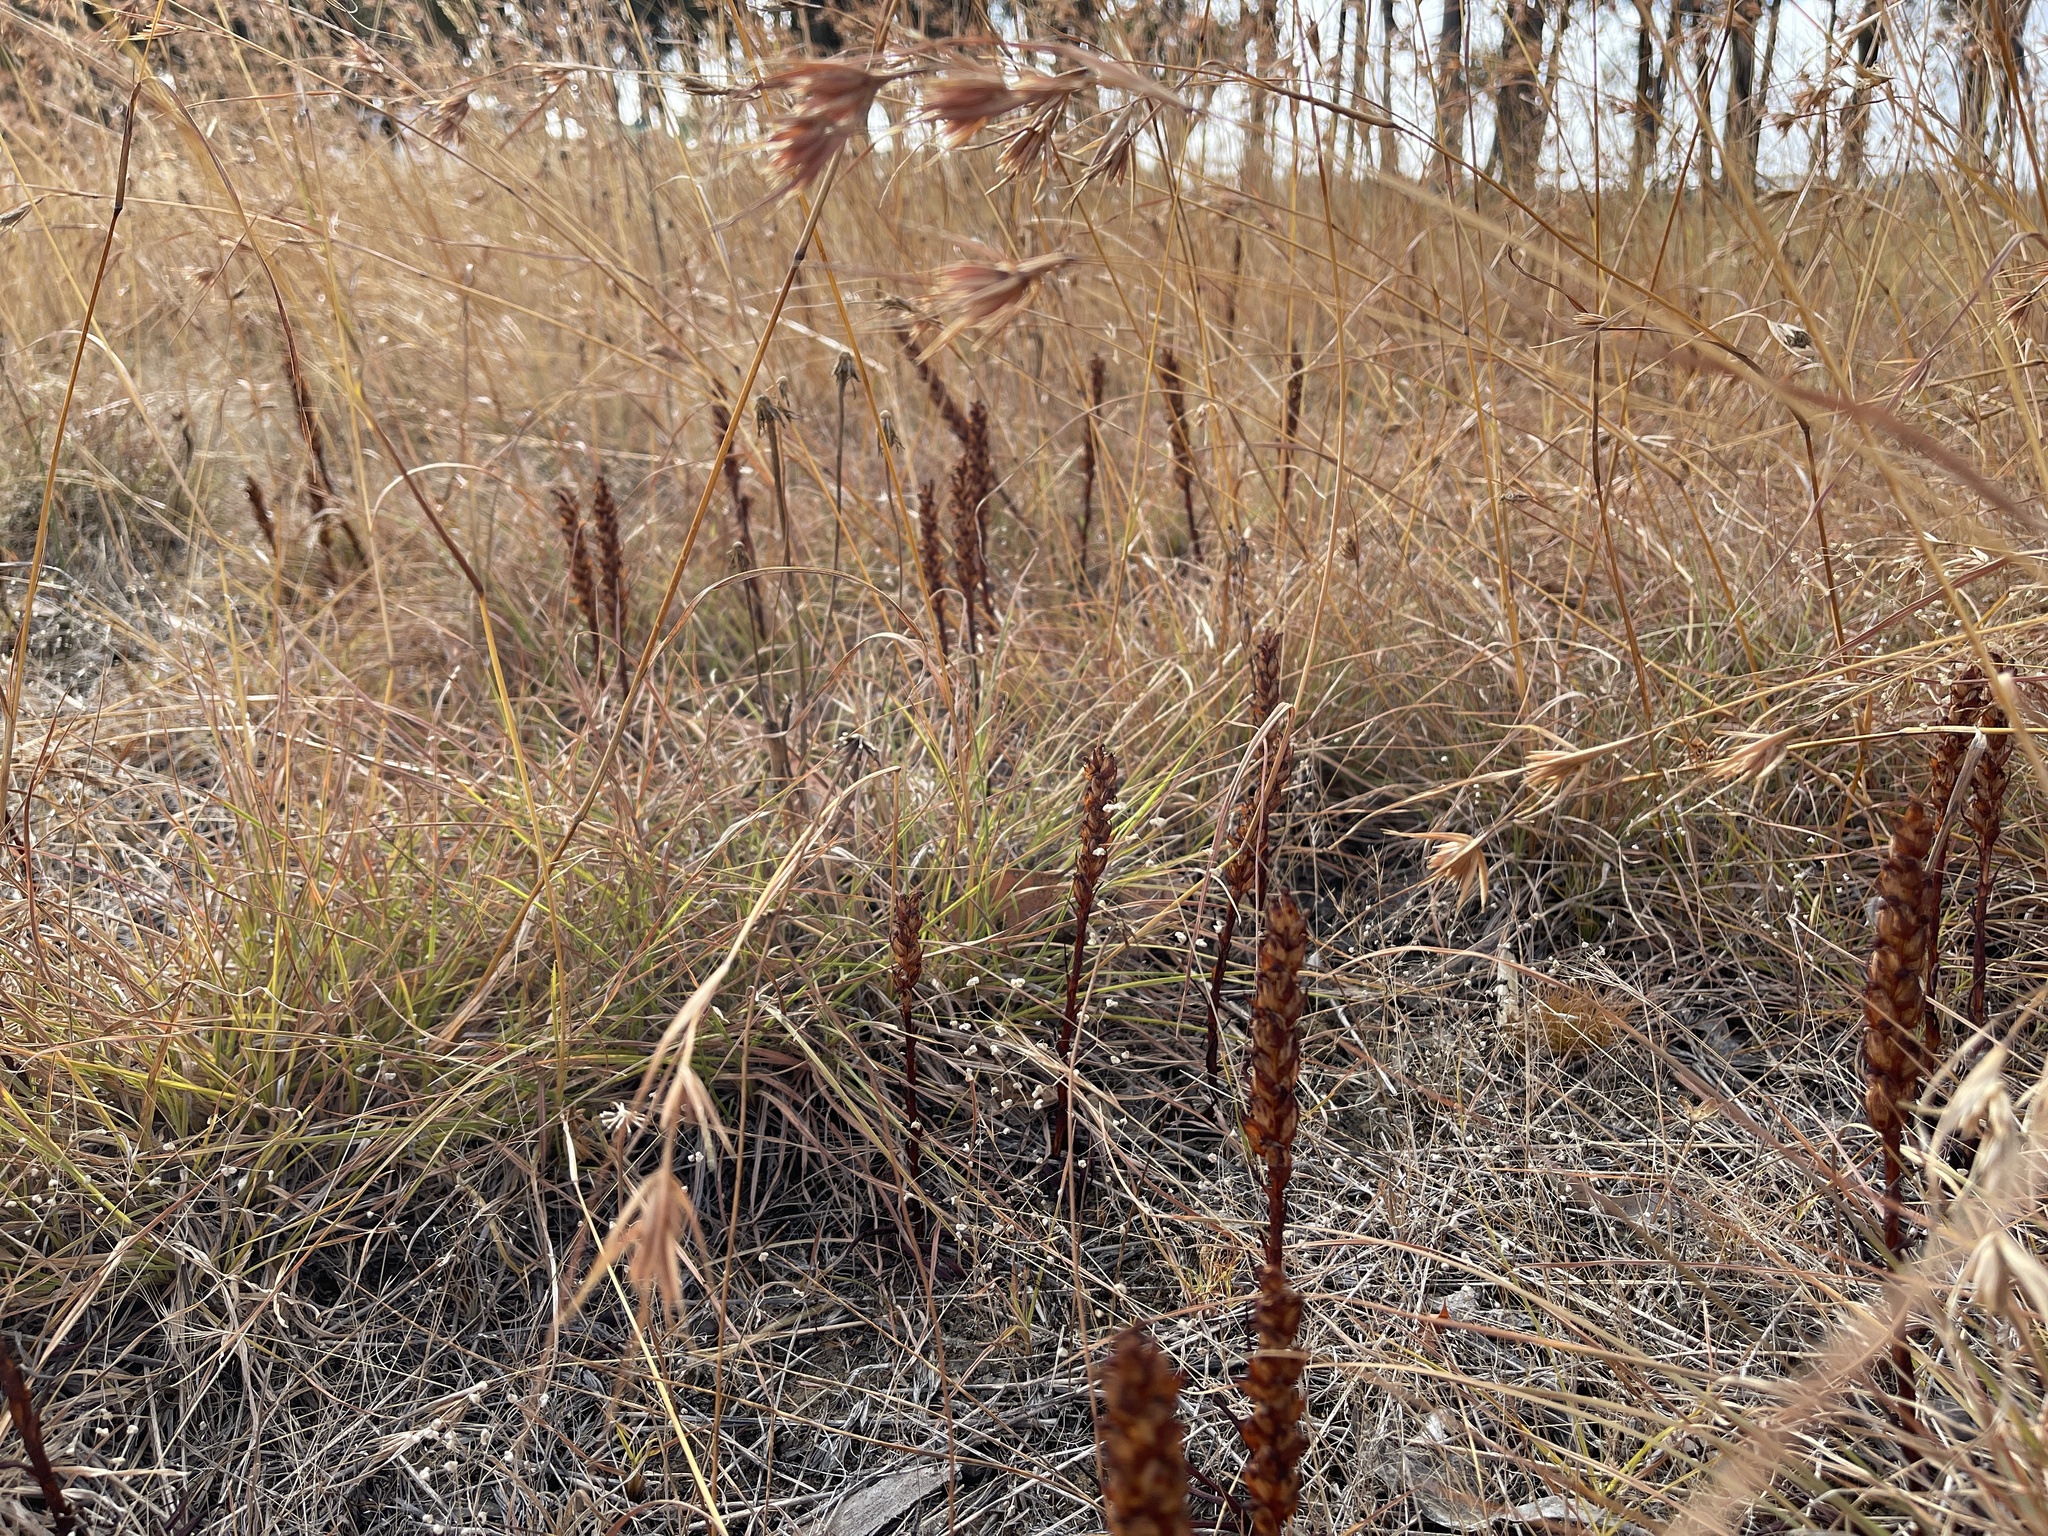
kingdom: Plantae
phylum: Tracheophyta
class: Liliopsida
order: Asparagales
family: Orchidaceae
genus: Disa
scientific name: Disa bracteata
